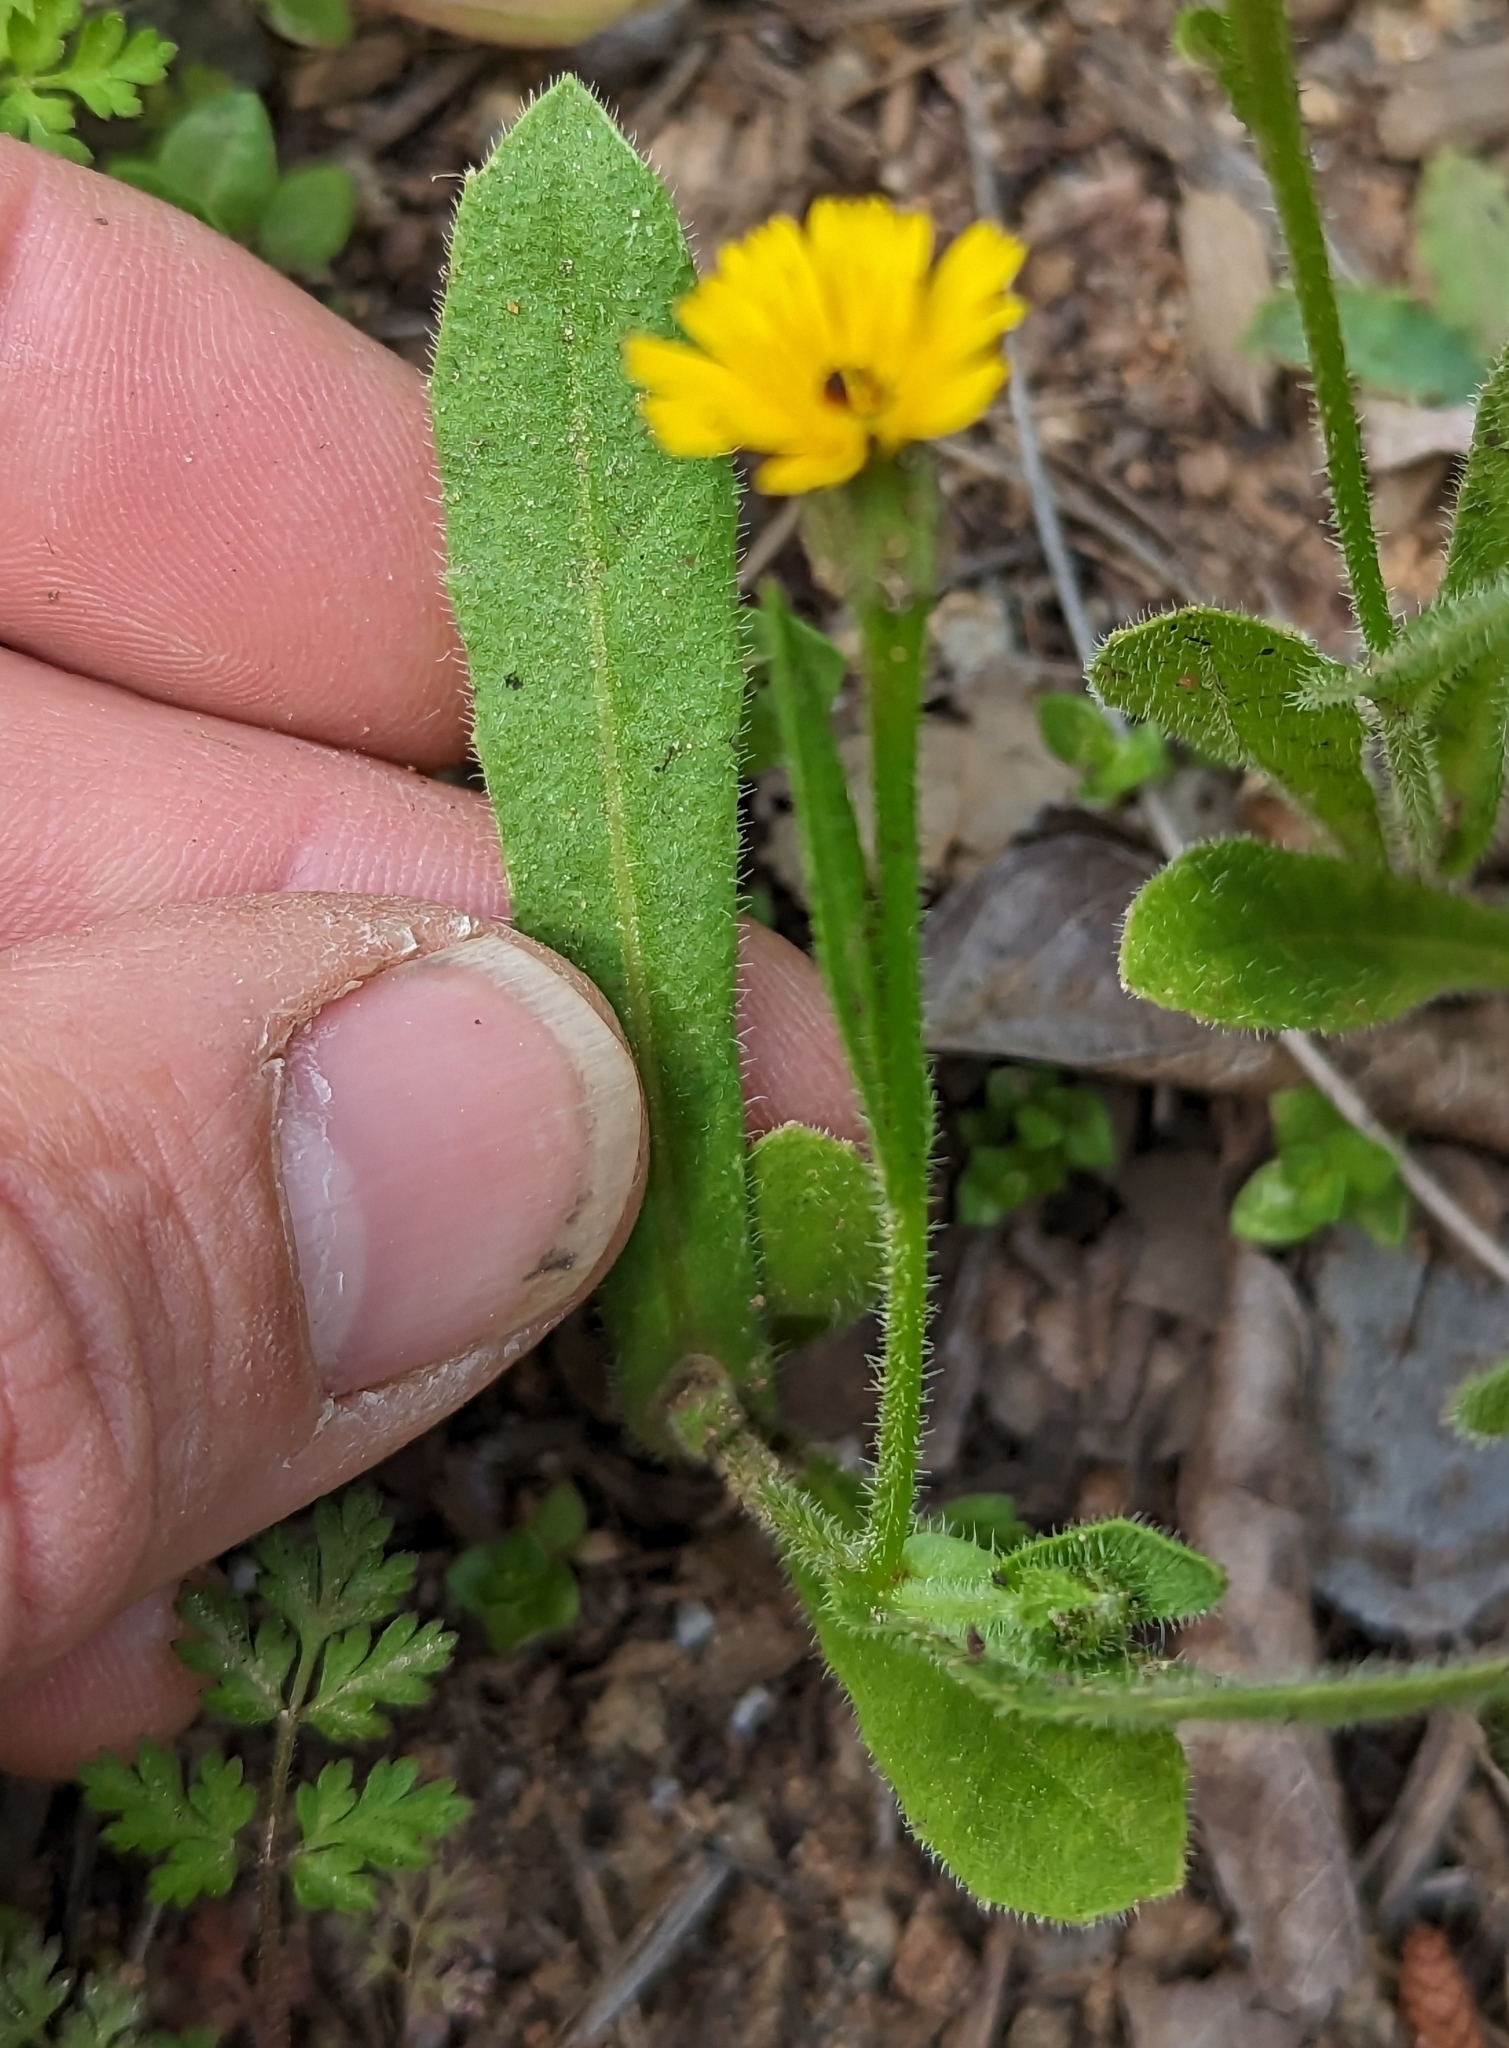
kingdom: Plantae
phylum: Tracheophyta
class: Magnoliopsida
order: Asterales
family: Asteraceae
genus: Hedypnois
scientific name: Hedypnois rhagadioloides
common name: Cretan weed
